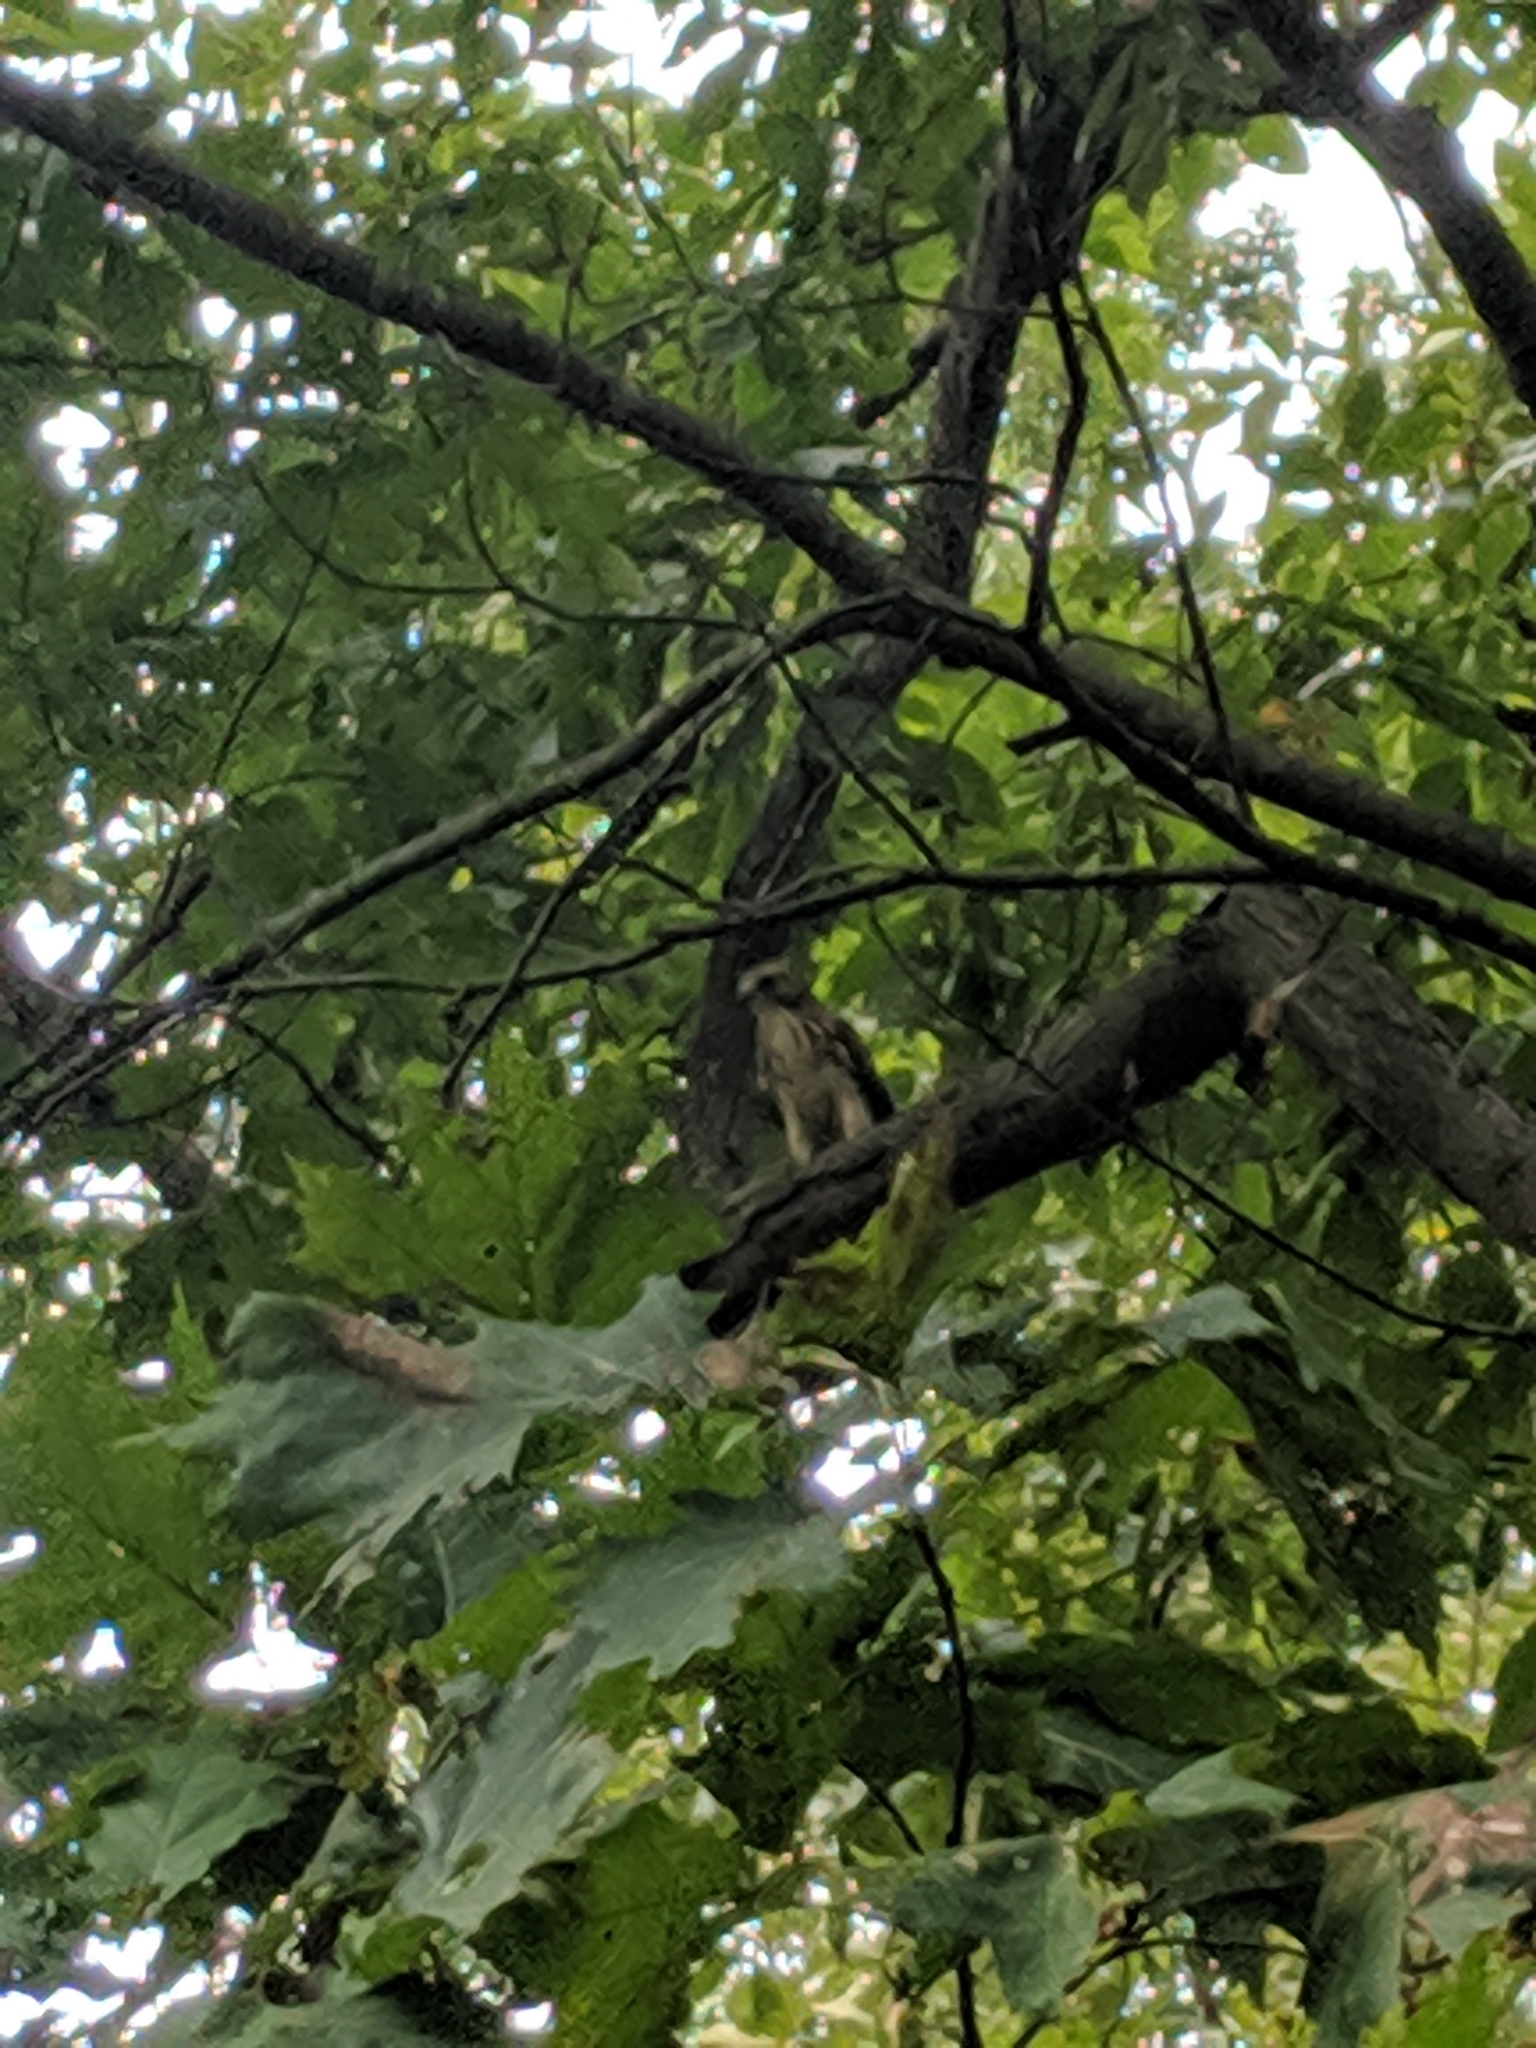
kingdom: Animalia
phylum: Chordata
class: Aves
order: Accipitriformes
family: Accipitridae
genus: Buteo
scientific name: Buteo jamaicensis
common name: Red-tailed hawk
